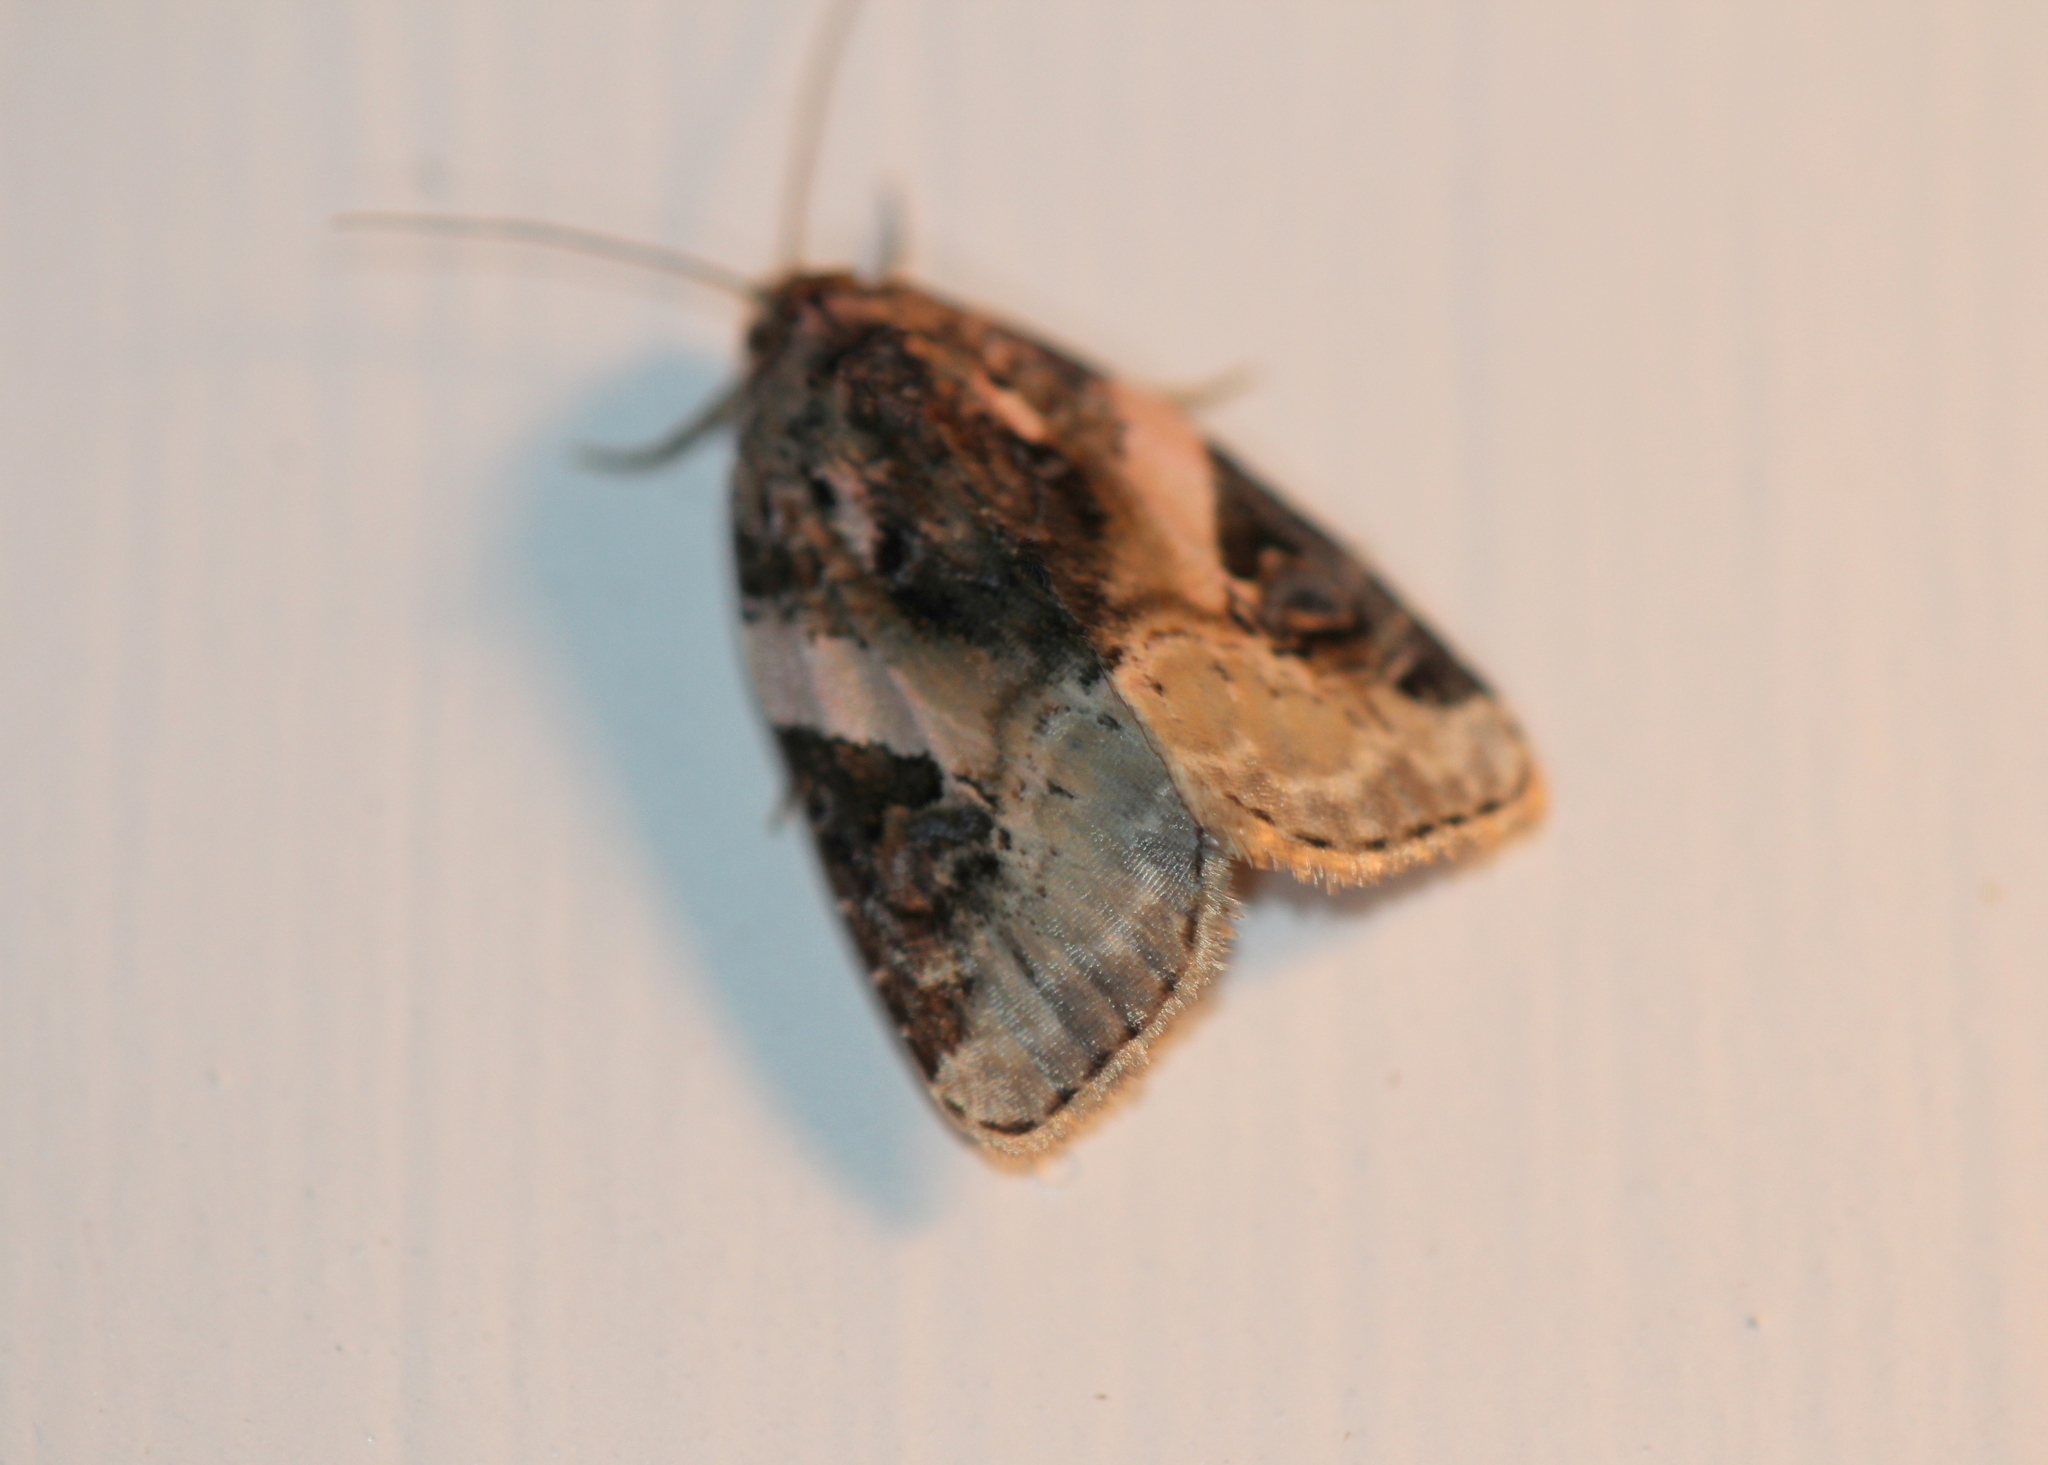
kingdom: Animalia
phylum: Arthropoda
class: Insecta
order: Lepidoptera
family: Noctuidae
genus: Pseudeustrotia
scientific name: Pseudeustrotia carneola
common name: Pink-barred lithacodia moth
